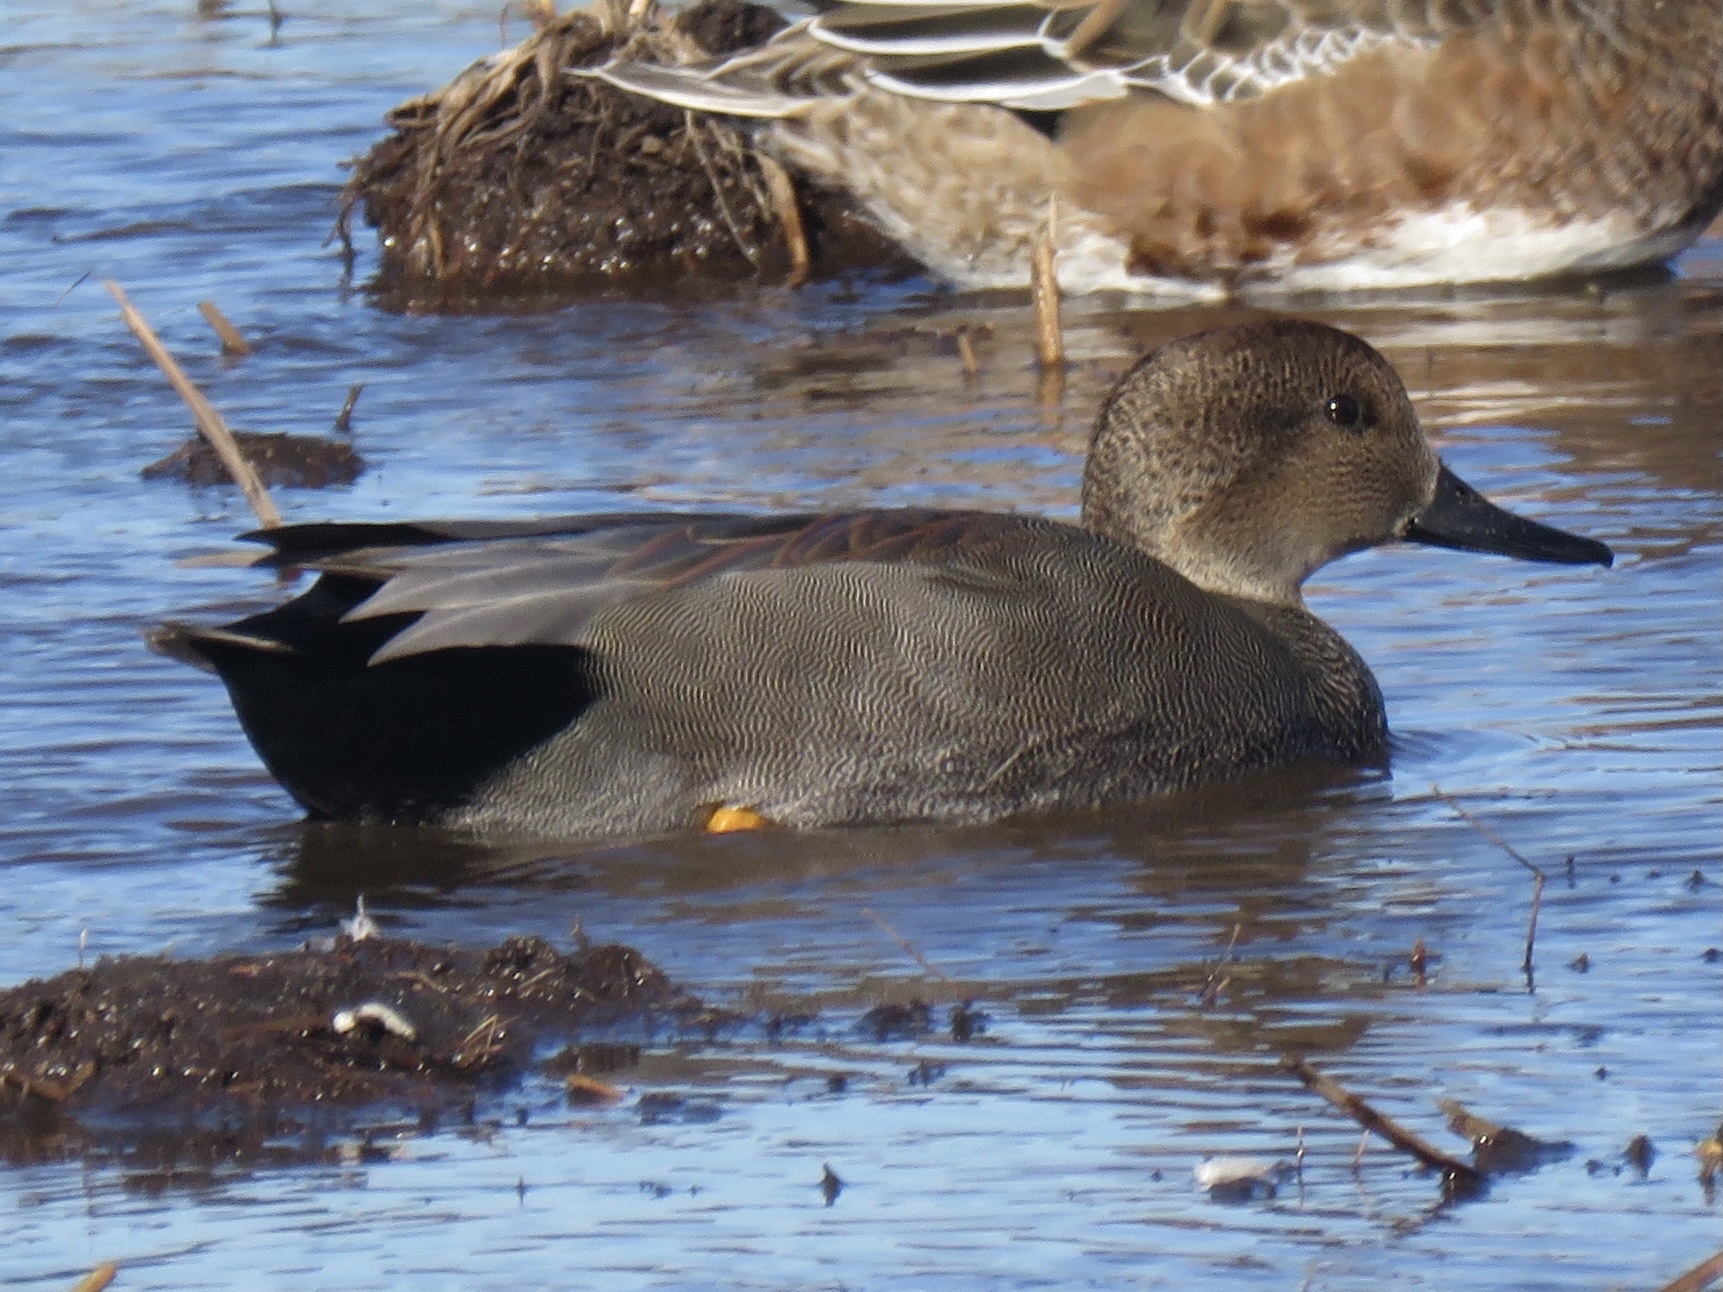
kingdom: Animalia
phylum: Chordata
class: Aves
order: Anseriformes
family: Anatidae
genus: Mareca
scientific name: Mareca strepera
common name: Gadwall
